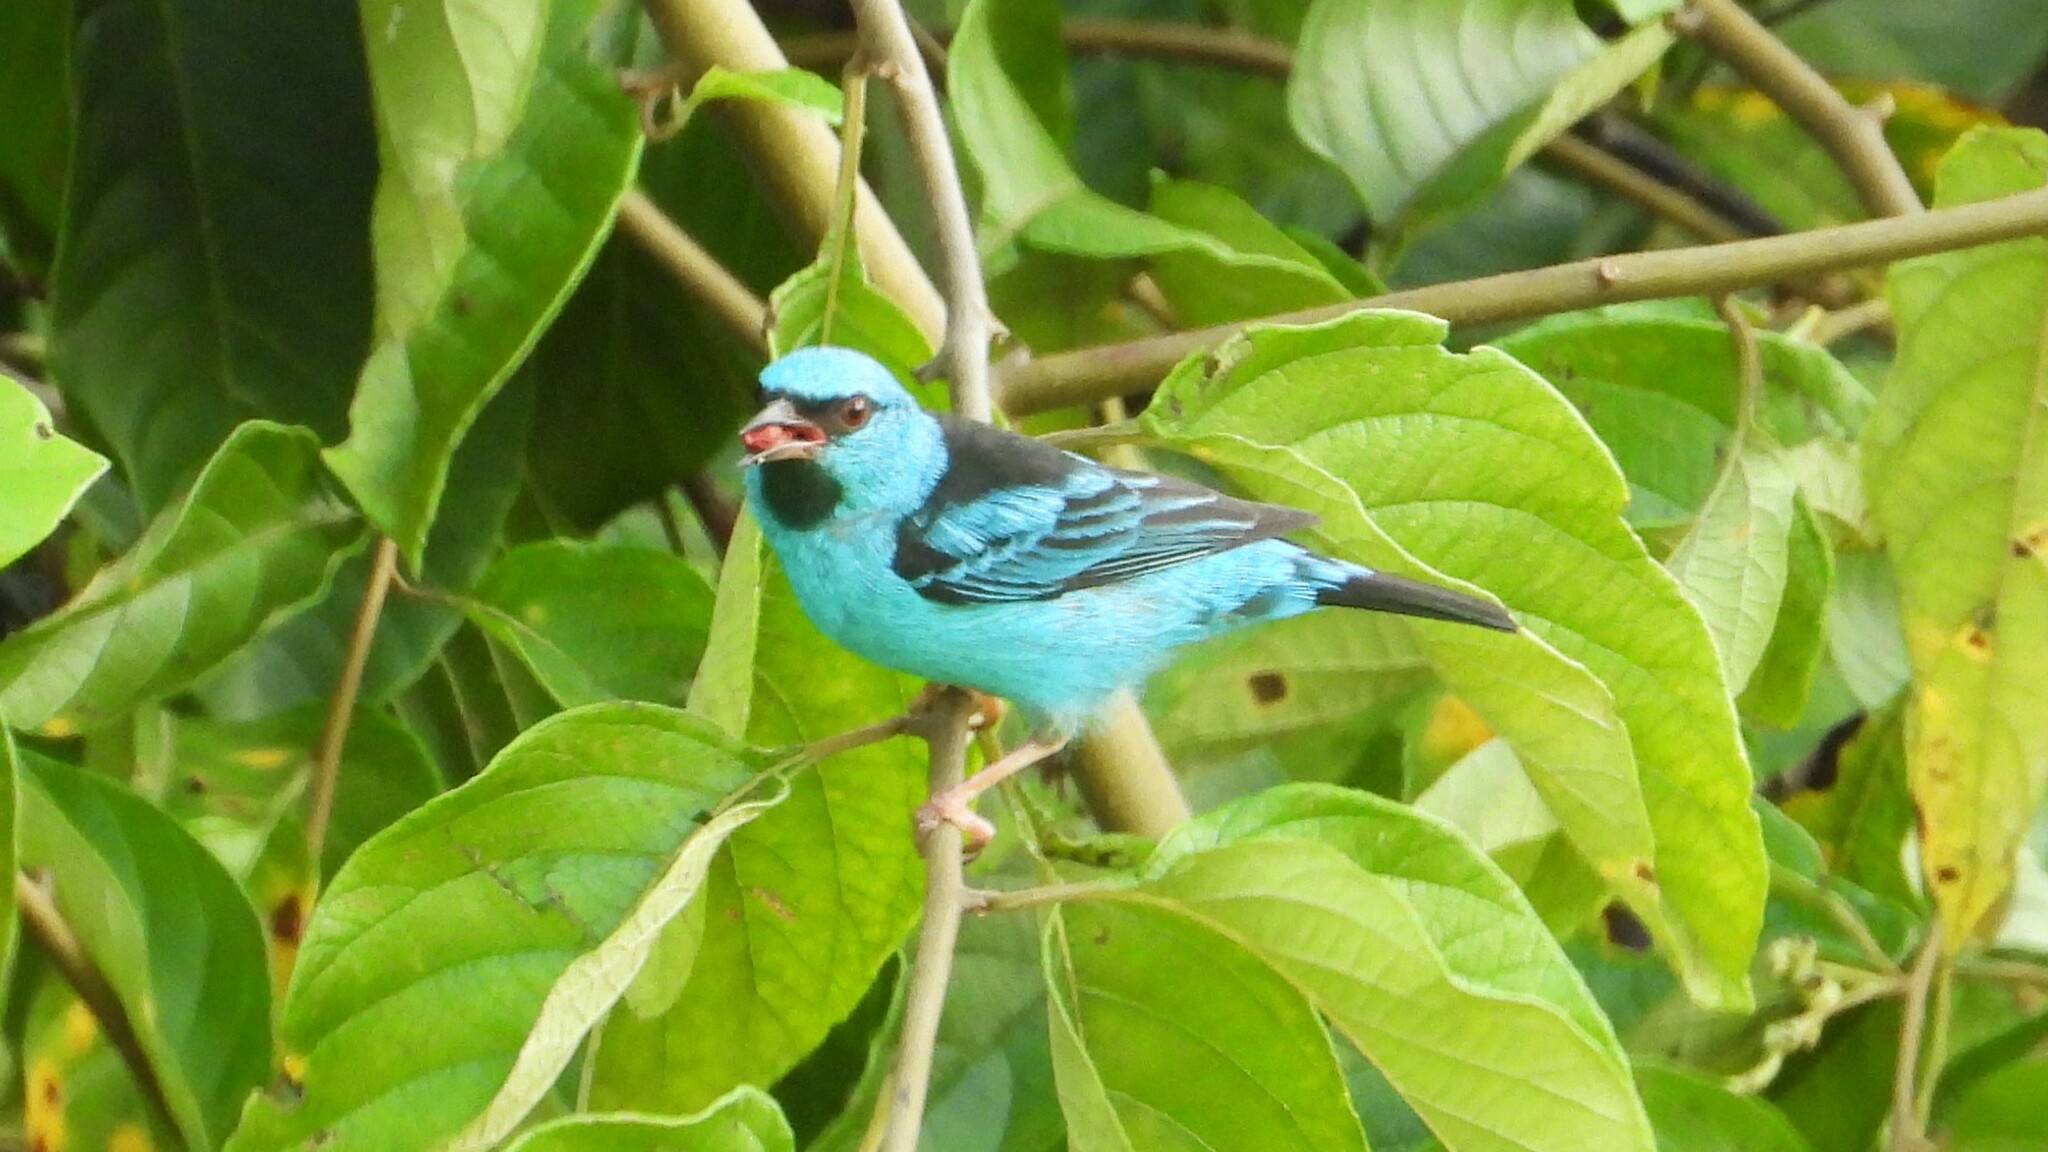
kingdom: Animalia
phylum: Chordata
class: Aves
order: Passeriformes
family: Thraupidae
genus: Dacnis
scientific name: Dacnis cayana
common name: Blue dacnis
